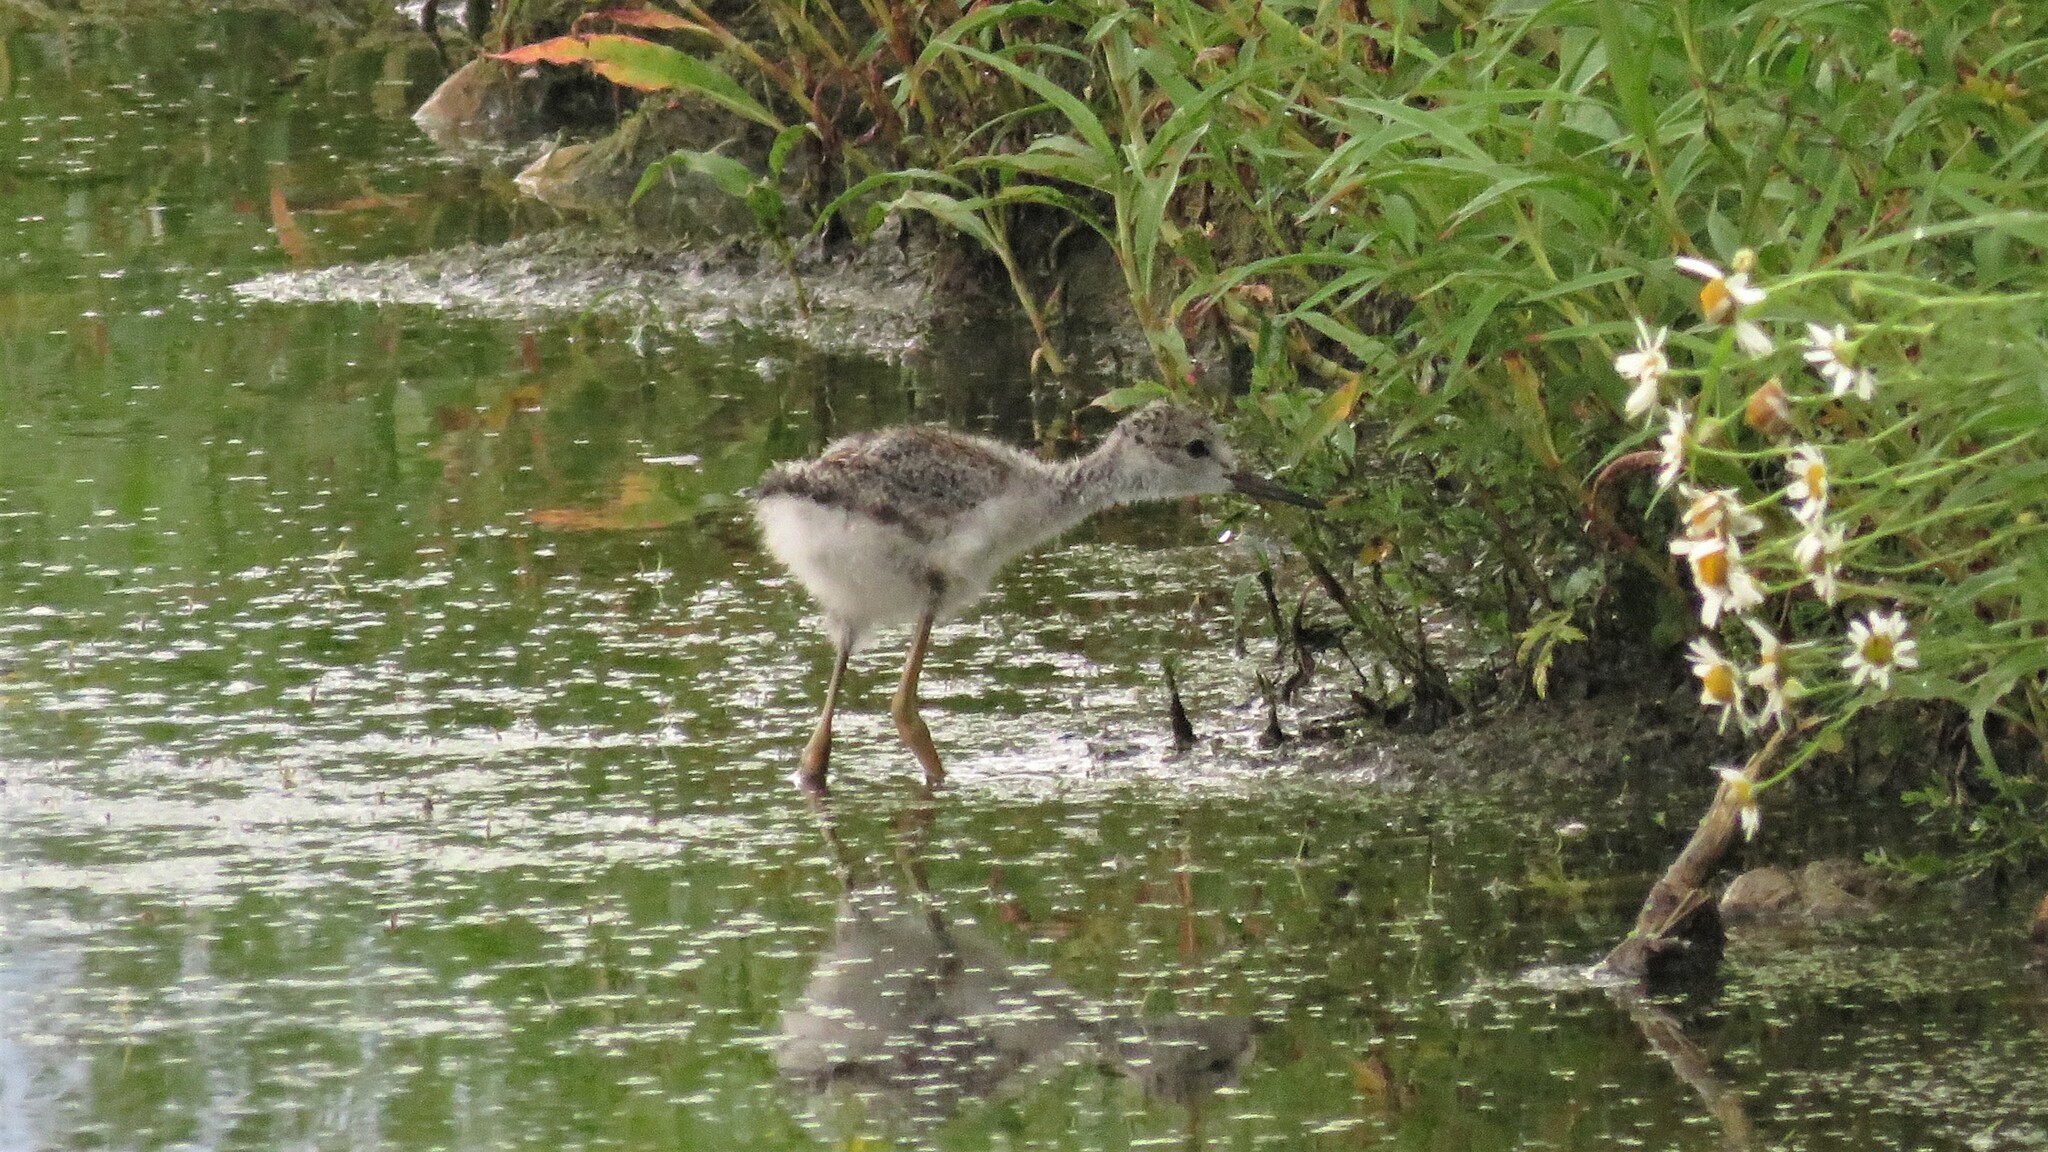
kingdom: Animalia
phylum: Chordata
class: Aves
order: Charadriiformes
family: Recurvirostridae
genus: Himantopus
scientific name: Himantopus mexicanus
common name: Black-necked stilt
